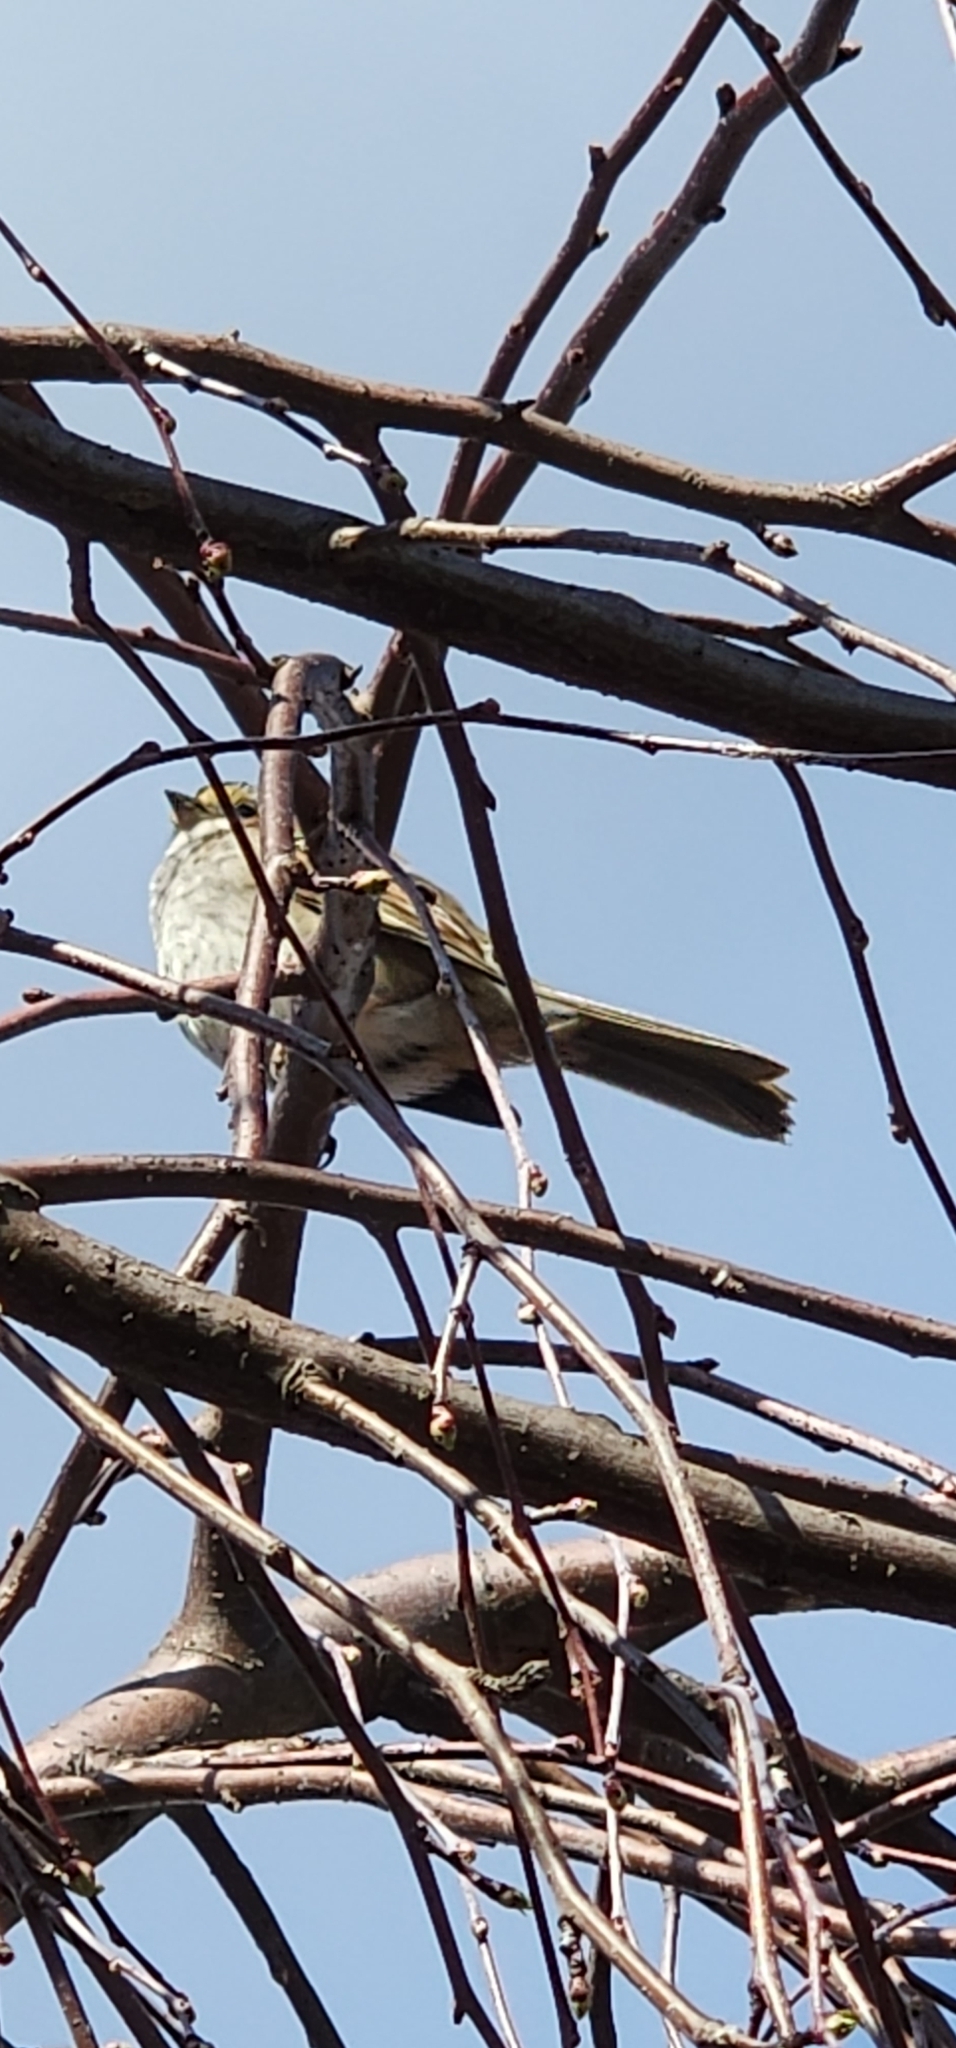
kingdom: Animalia
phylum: Chordata
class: Aves
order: Passeriformes
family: Passerellidae
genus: Zonotrichia
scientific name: Zonotrichia albicollis
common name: White-throated sparrow
